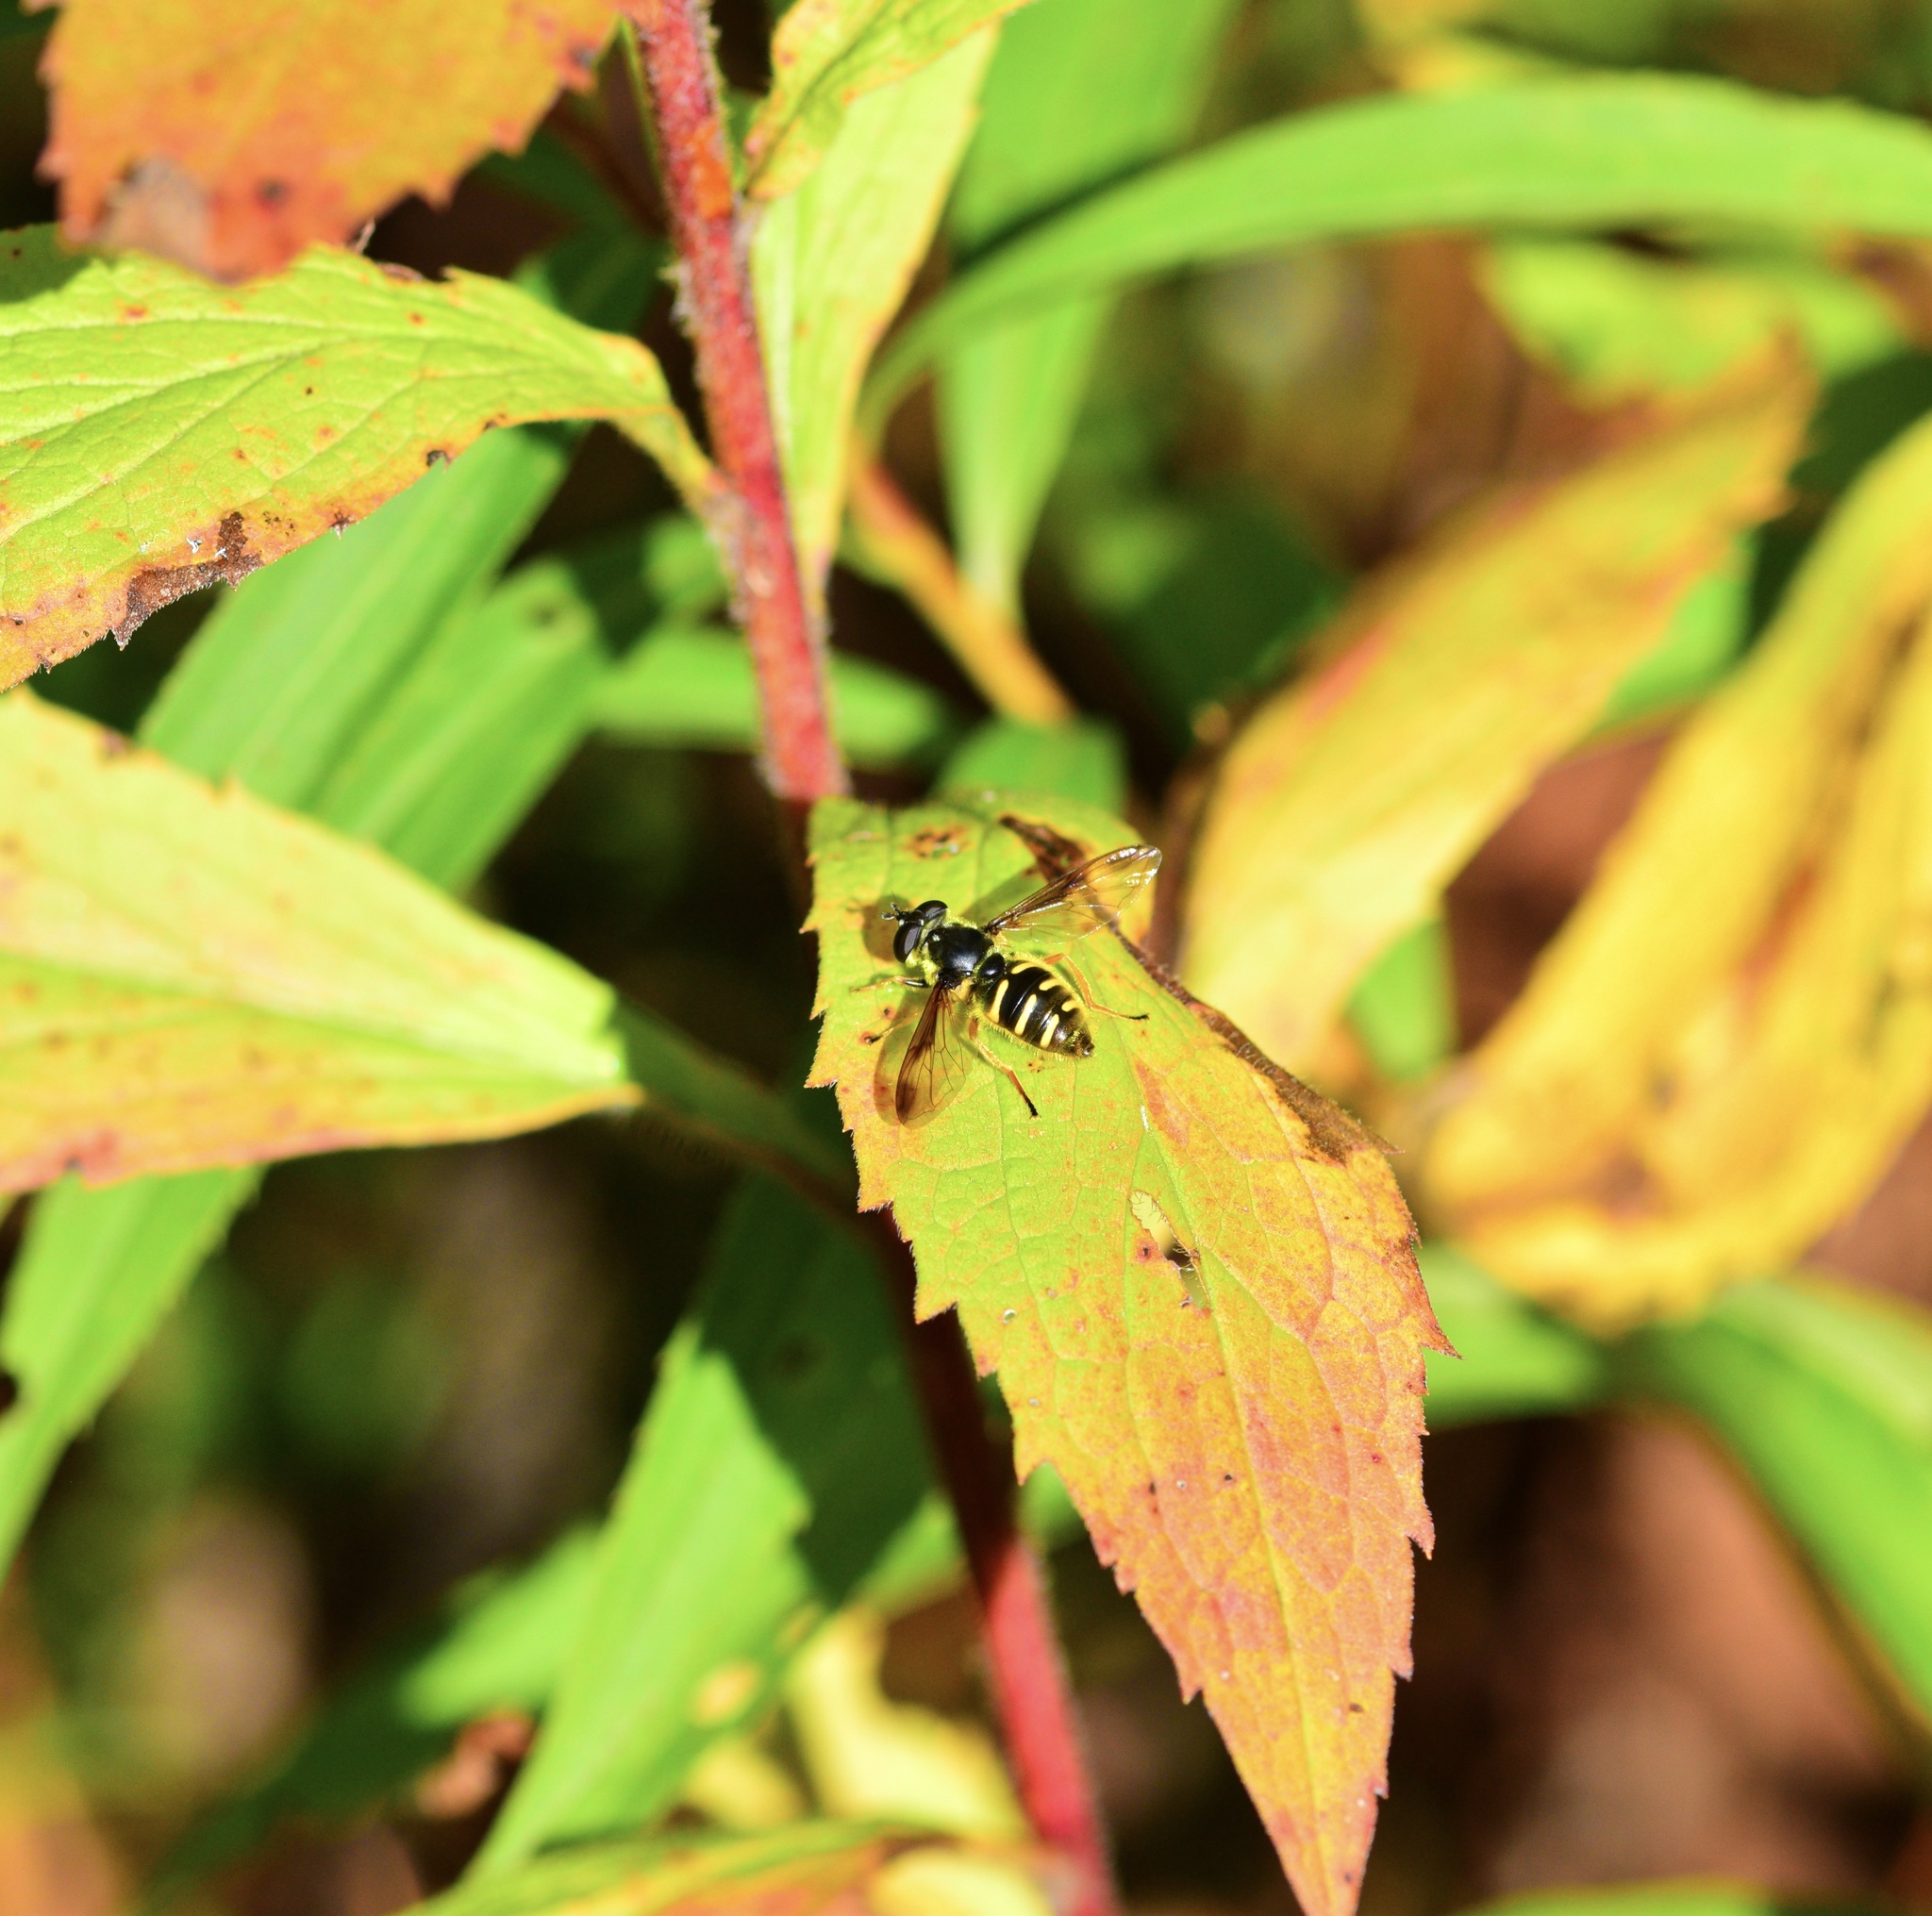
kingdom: Animalia
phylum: Arthropoda
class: Insecta
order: Diptera
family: Syrphidae
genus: Sericomyia
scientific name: Sericomyia chrysotoxoides
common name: Oblique-banded pond fly
